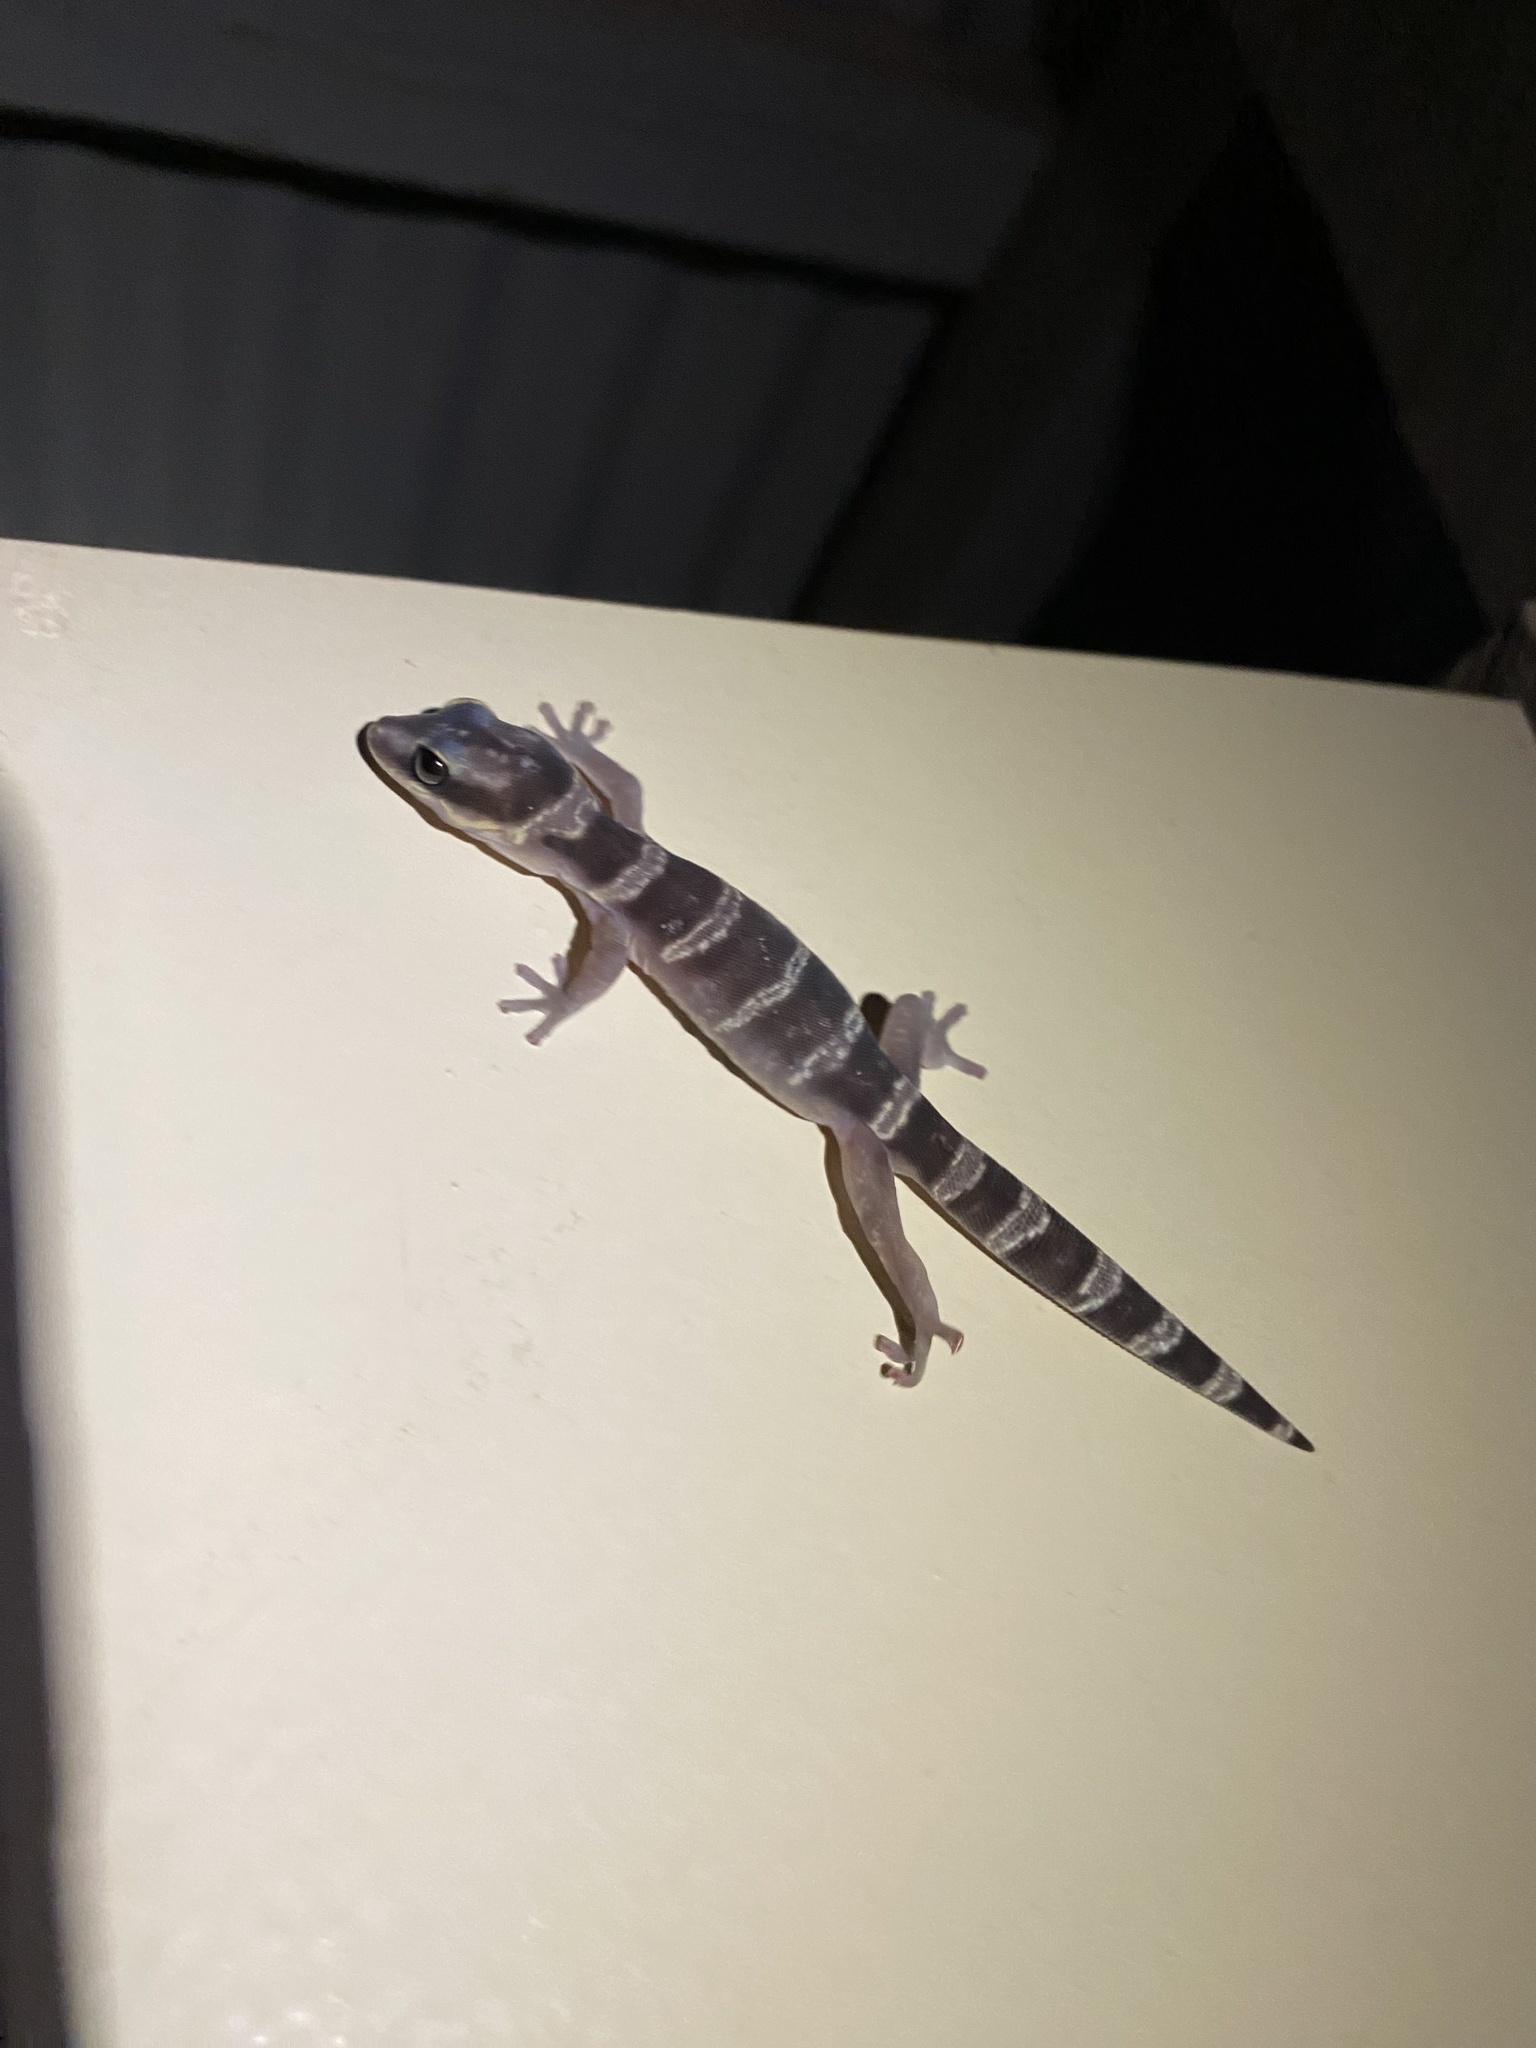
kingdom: Animalia
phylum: Chordata
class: Squamata
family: Diplodactylidae
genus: Oedura
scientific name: Oedura cincta
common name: Inland marbled velvet gecko
